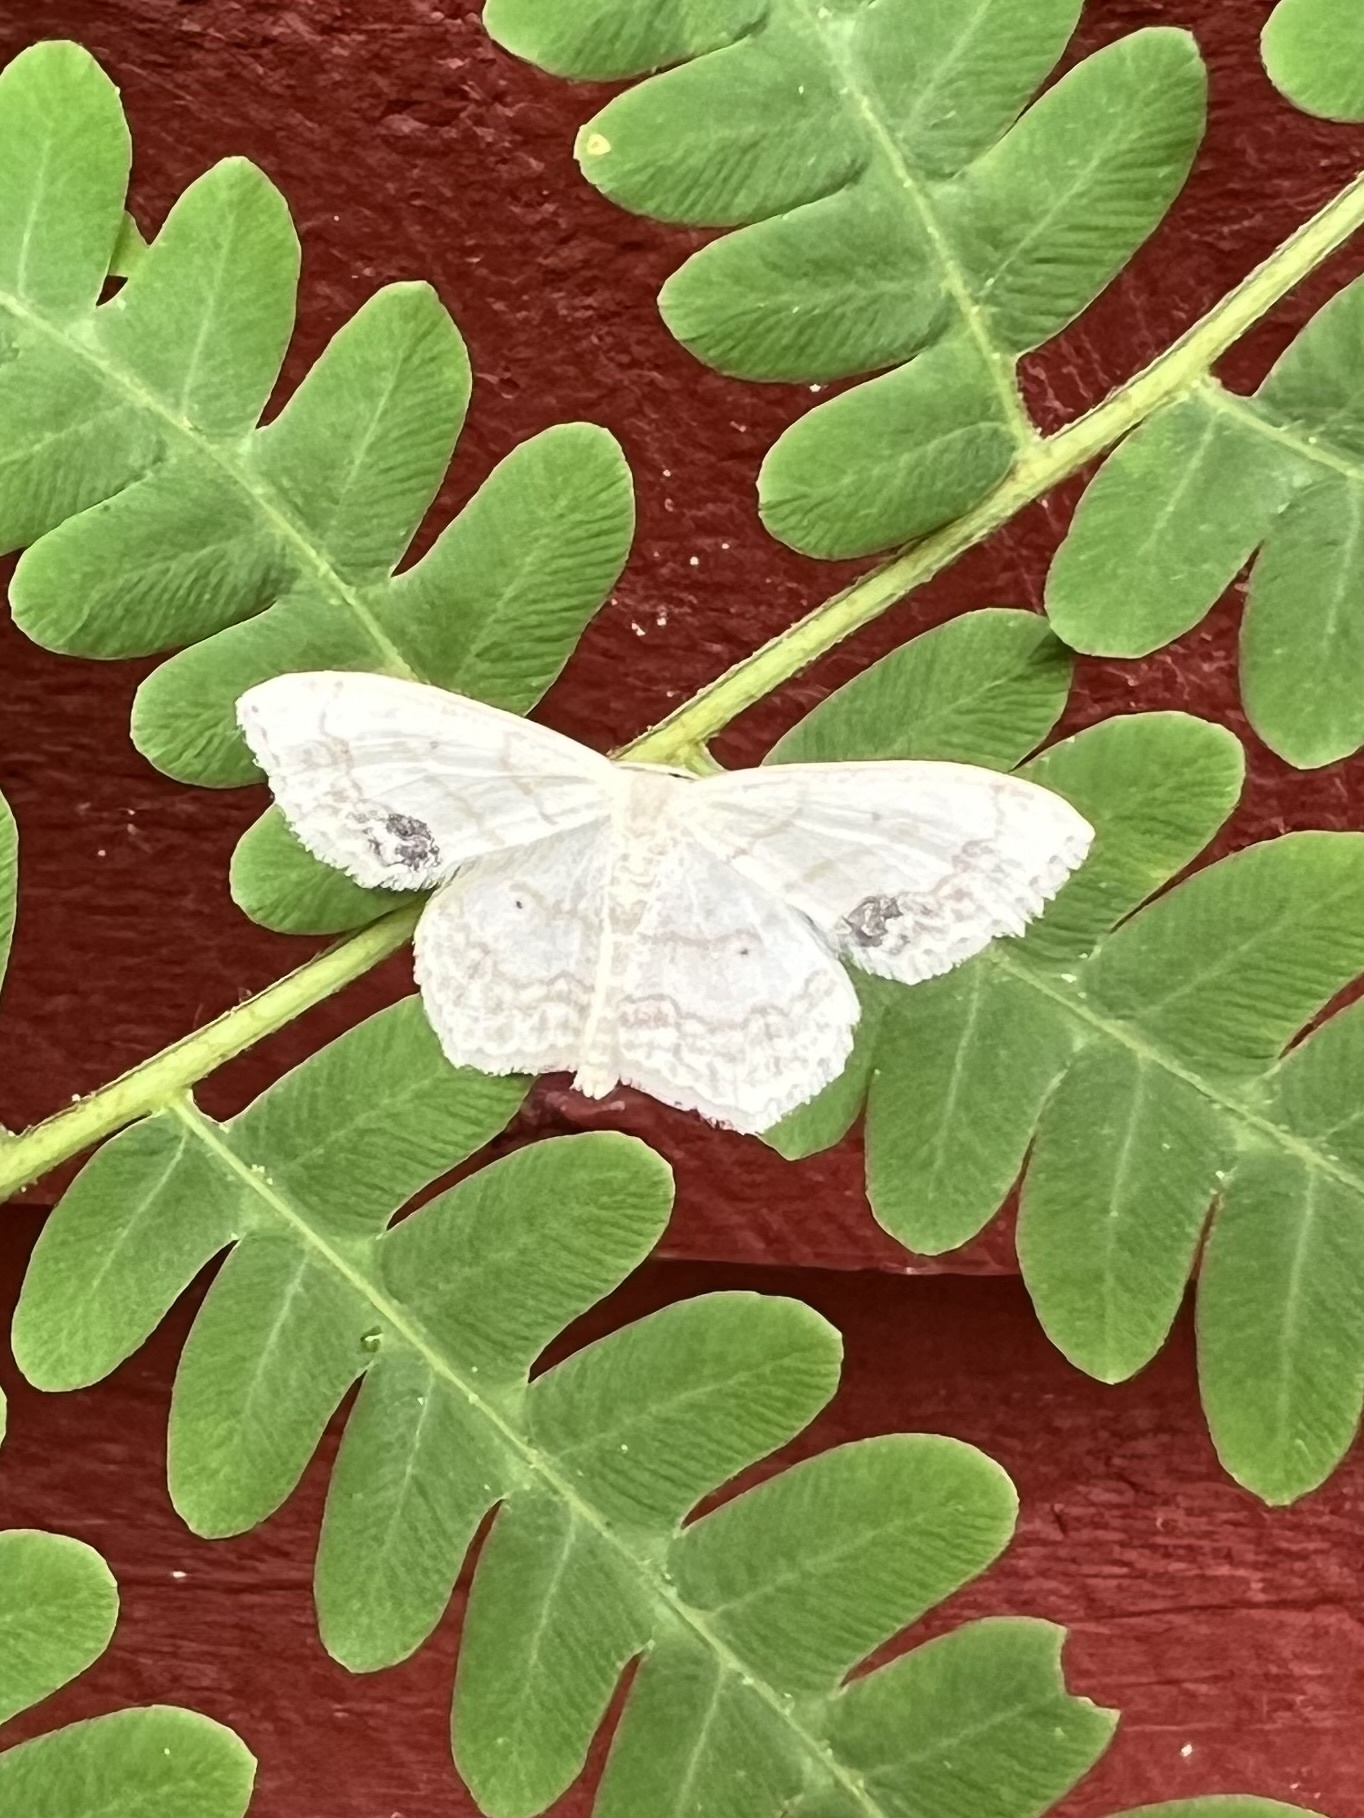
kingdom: Animalia
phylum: Arthropoda
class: Insecta
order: Lepidoptera
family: Geometridae
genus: Scopula
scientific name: Scopula limboundata
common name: Large lace border
